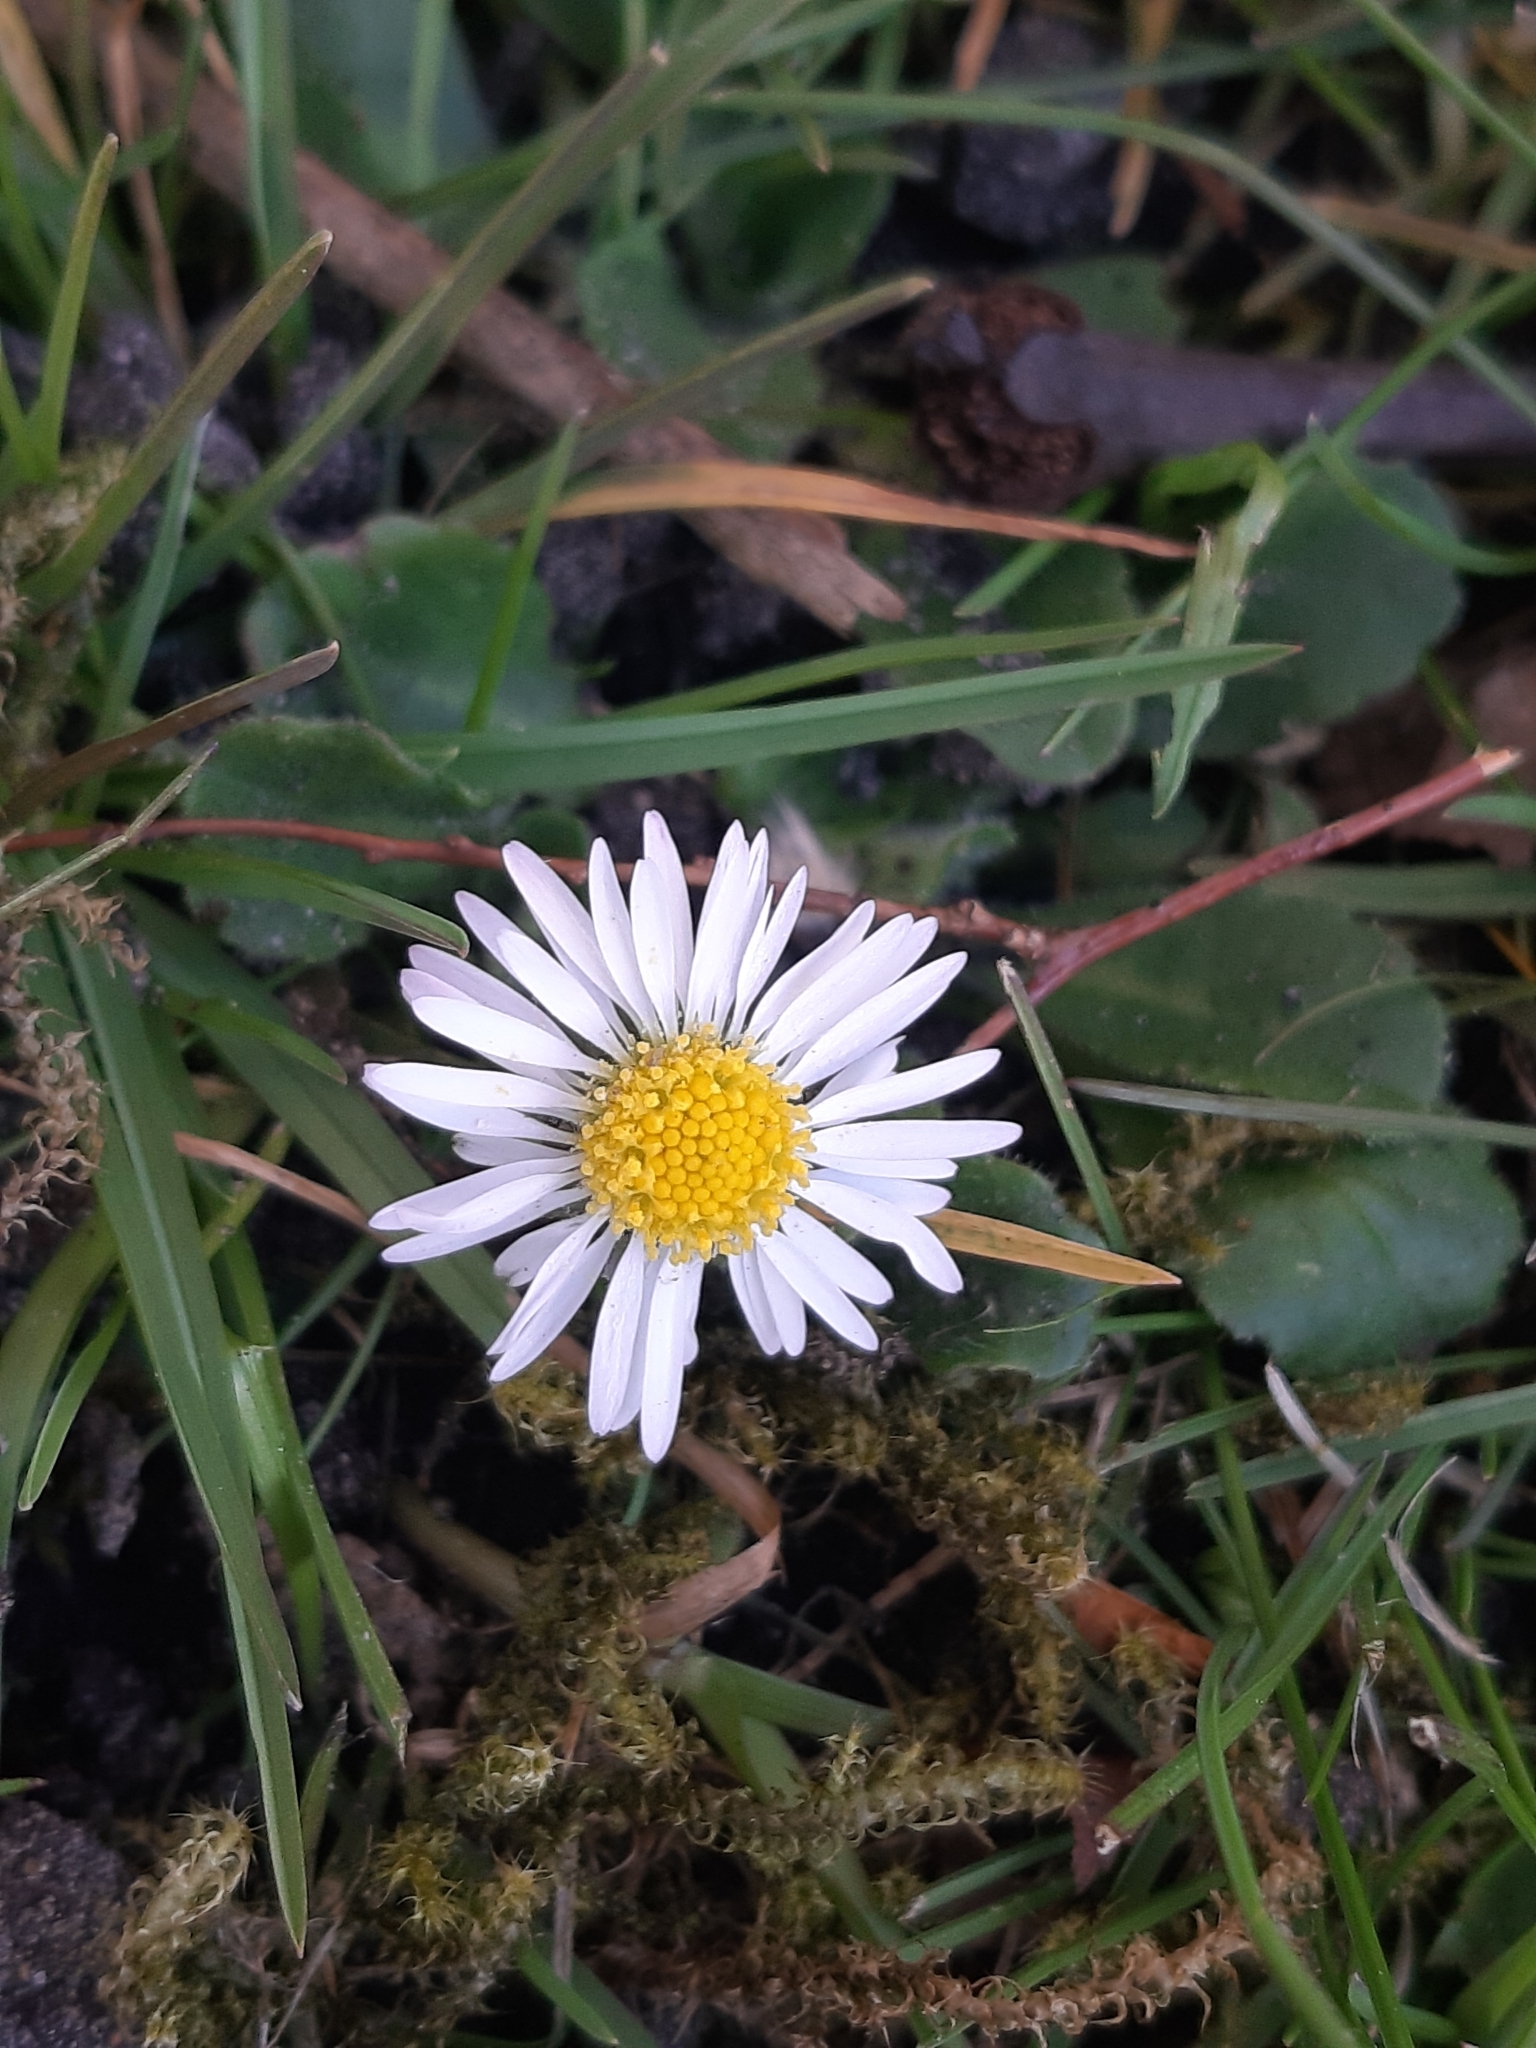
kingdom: Plantae
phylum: Tracheophyta
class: Magnoliopsida
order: Asterales
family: Asteraceae
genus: Bellis
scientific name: Bellis perennis
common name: Lawndaisy
